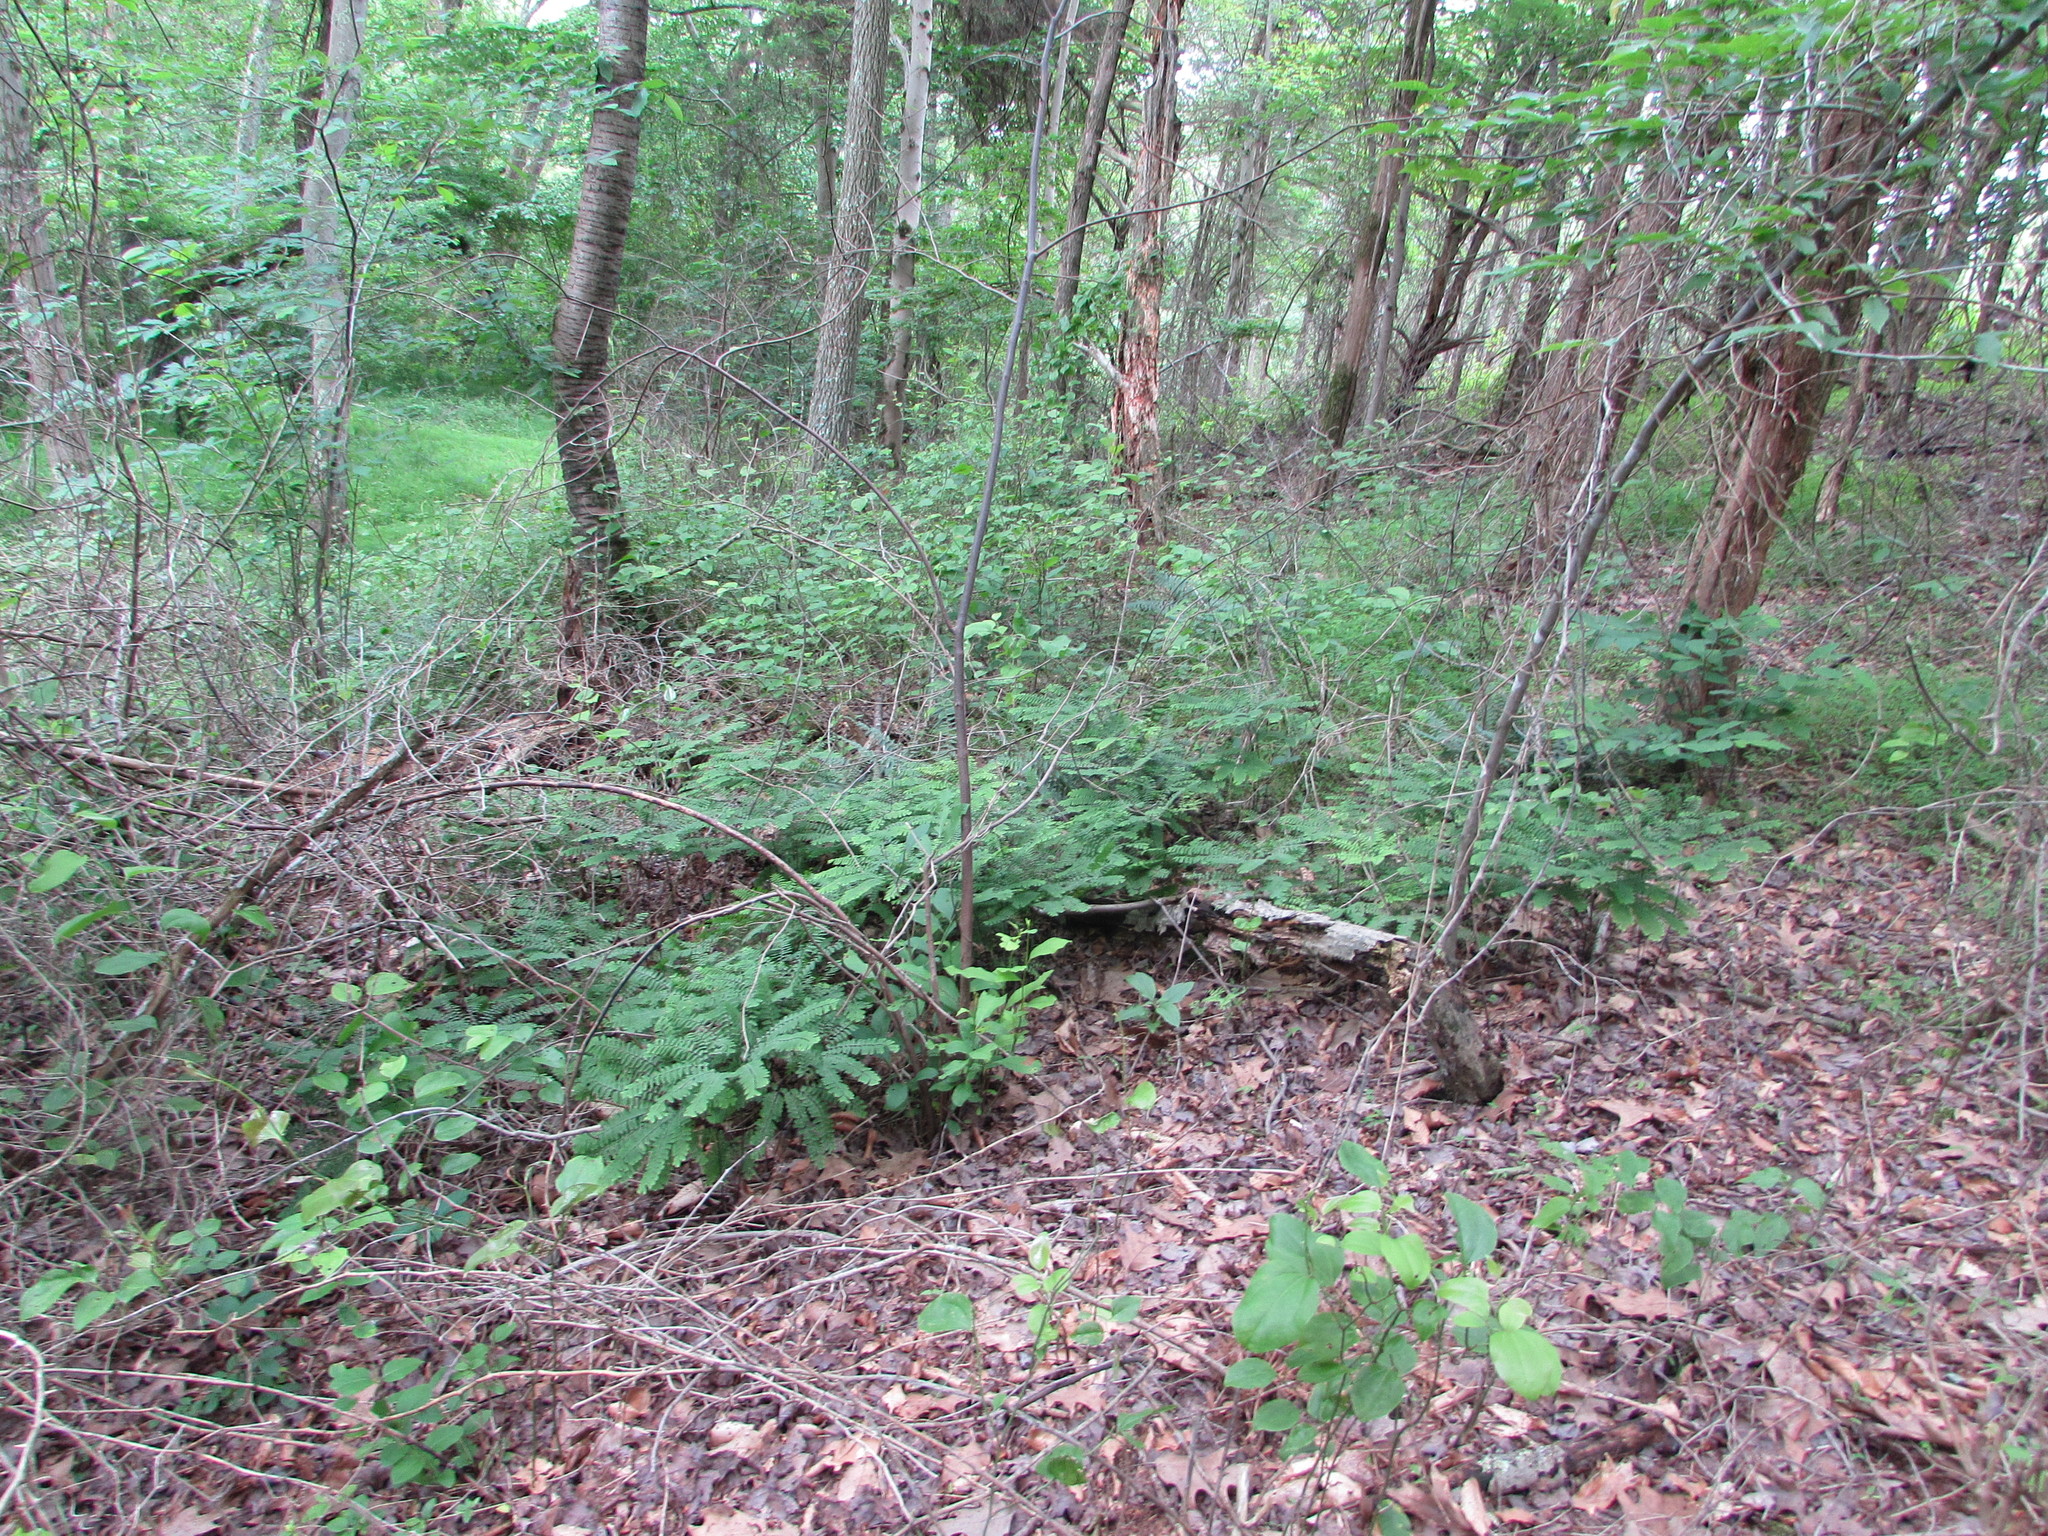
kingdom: Plantae
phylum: Tracheophyta
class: Polypodiopsida
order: Polypodiales
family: Pteridaceae
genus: Adiantum
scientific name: Adiantum pedatum
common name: Five-finger fern
